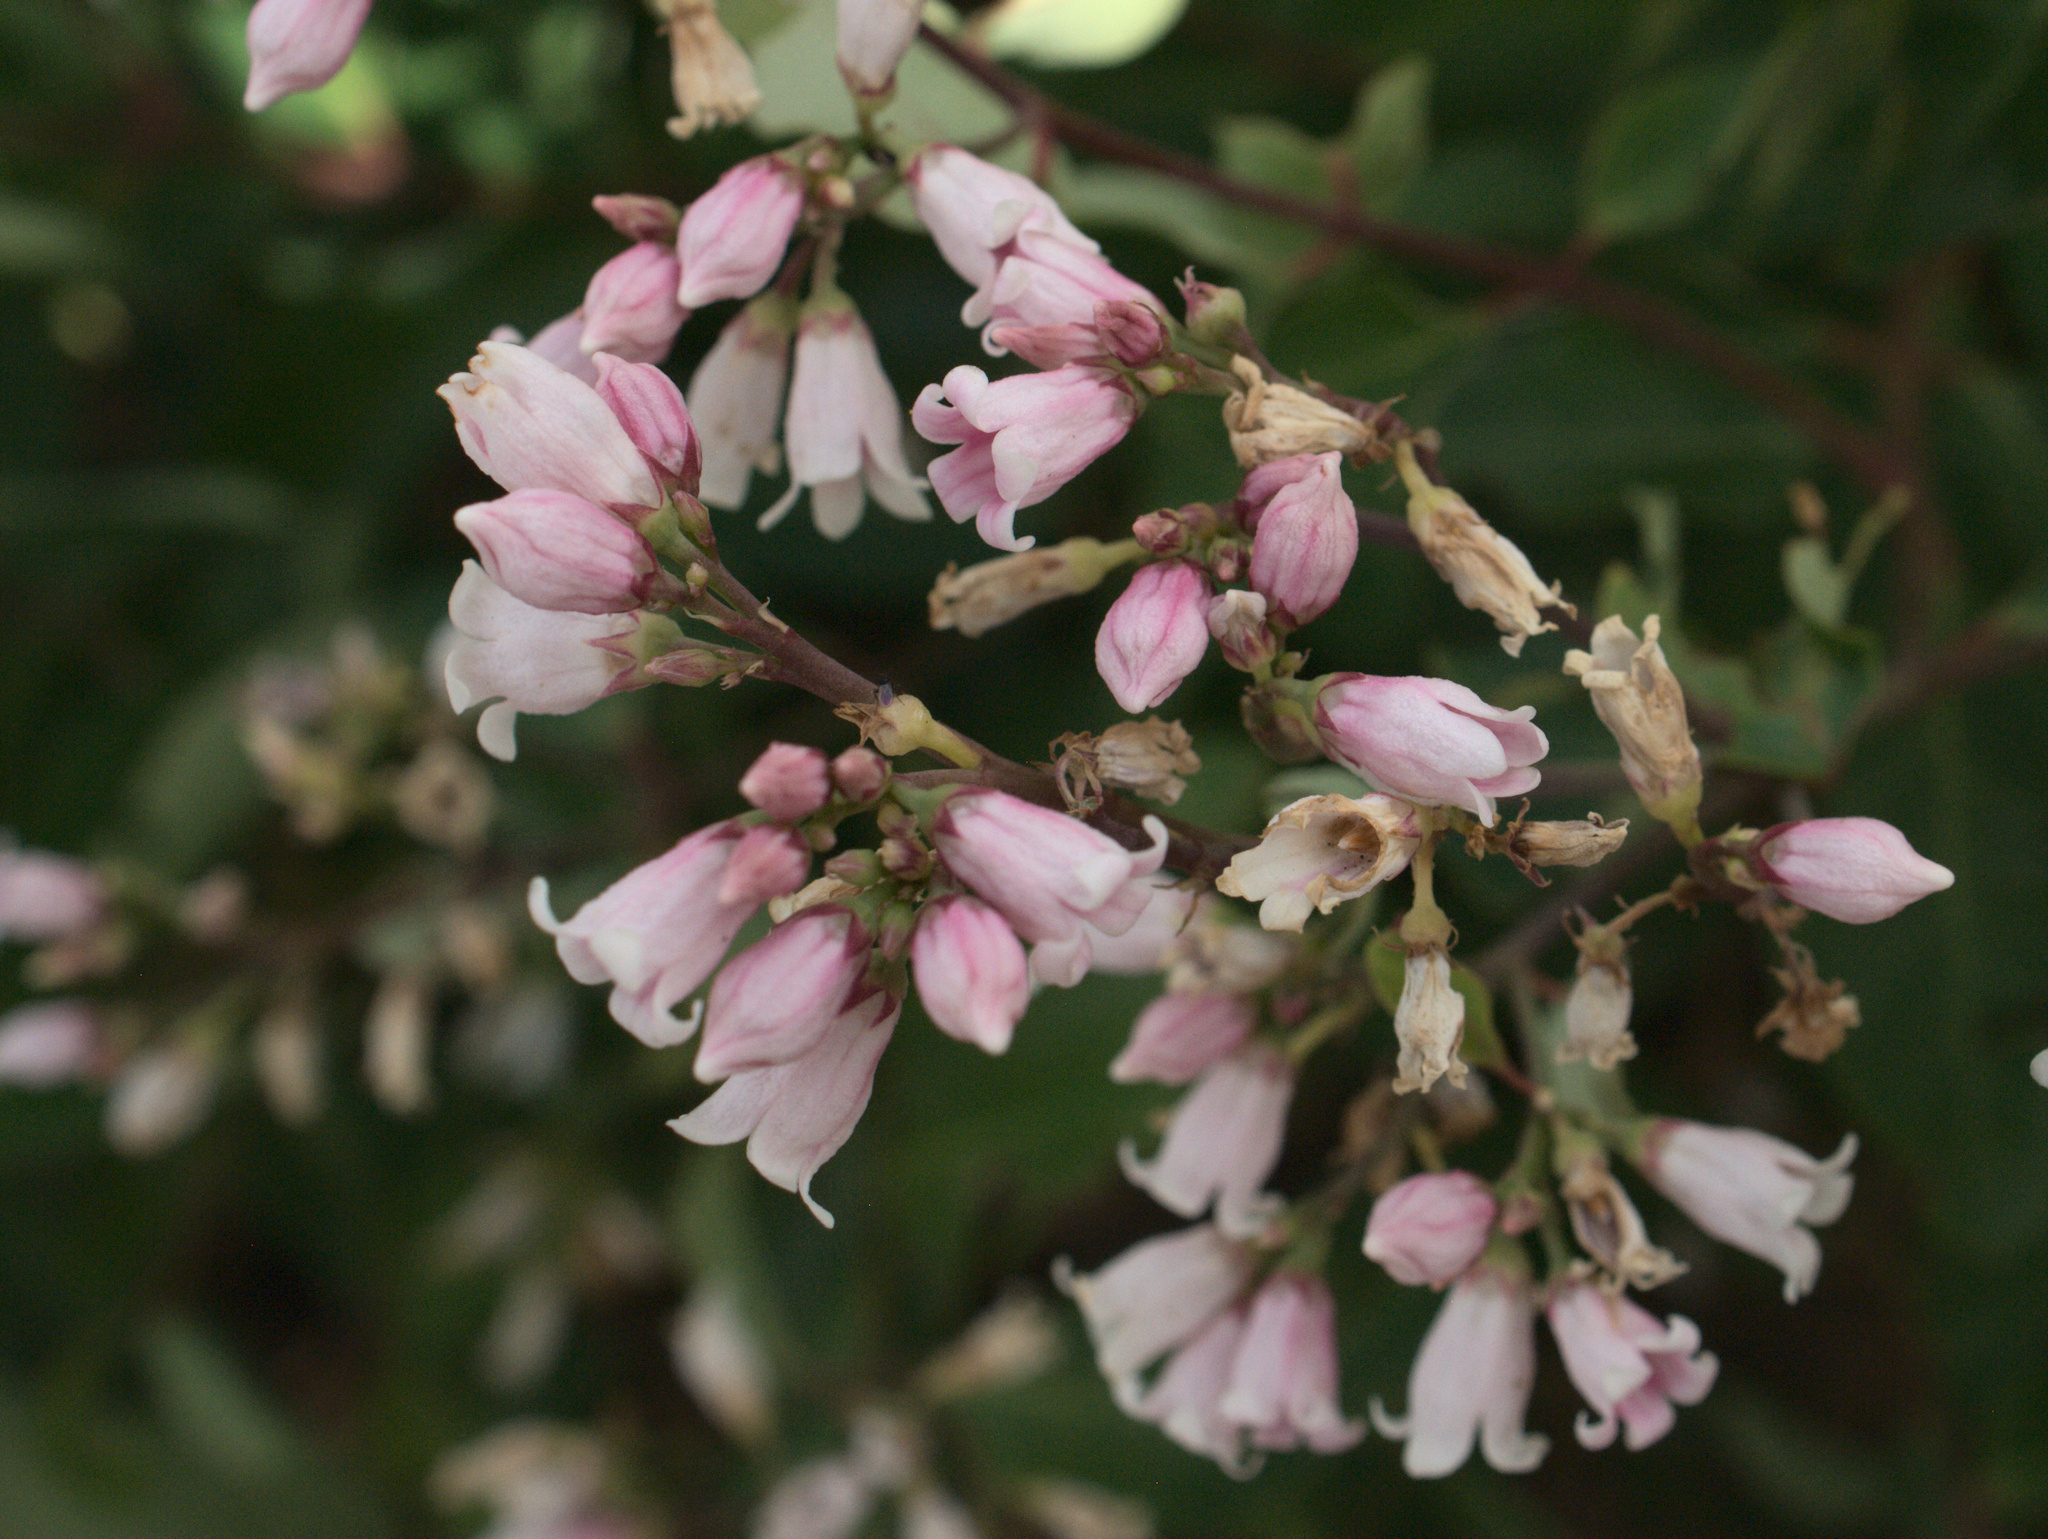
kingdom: Plantae
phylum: Tracheophyta
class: Magnoliopsida
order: Gentianales
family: Apocynaceae
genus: Apocynum
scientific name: Apocynum androsaemifolium
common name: Spreading dogbane
